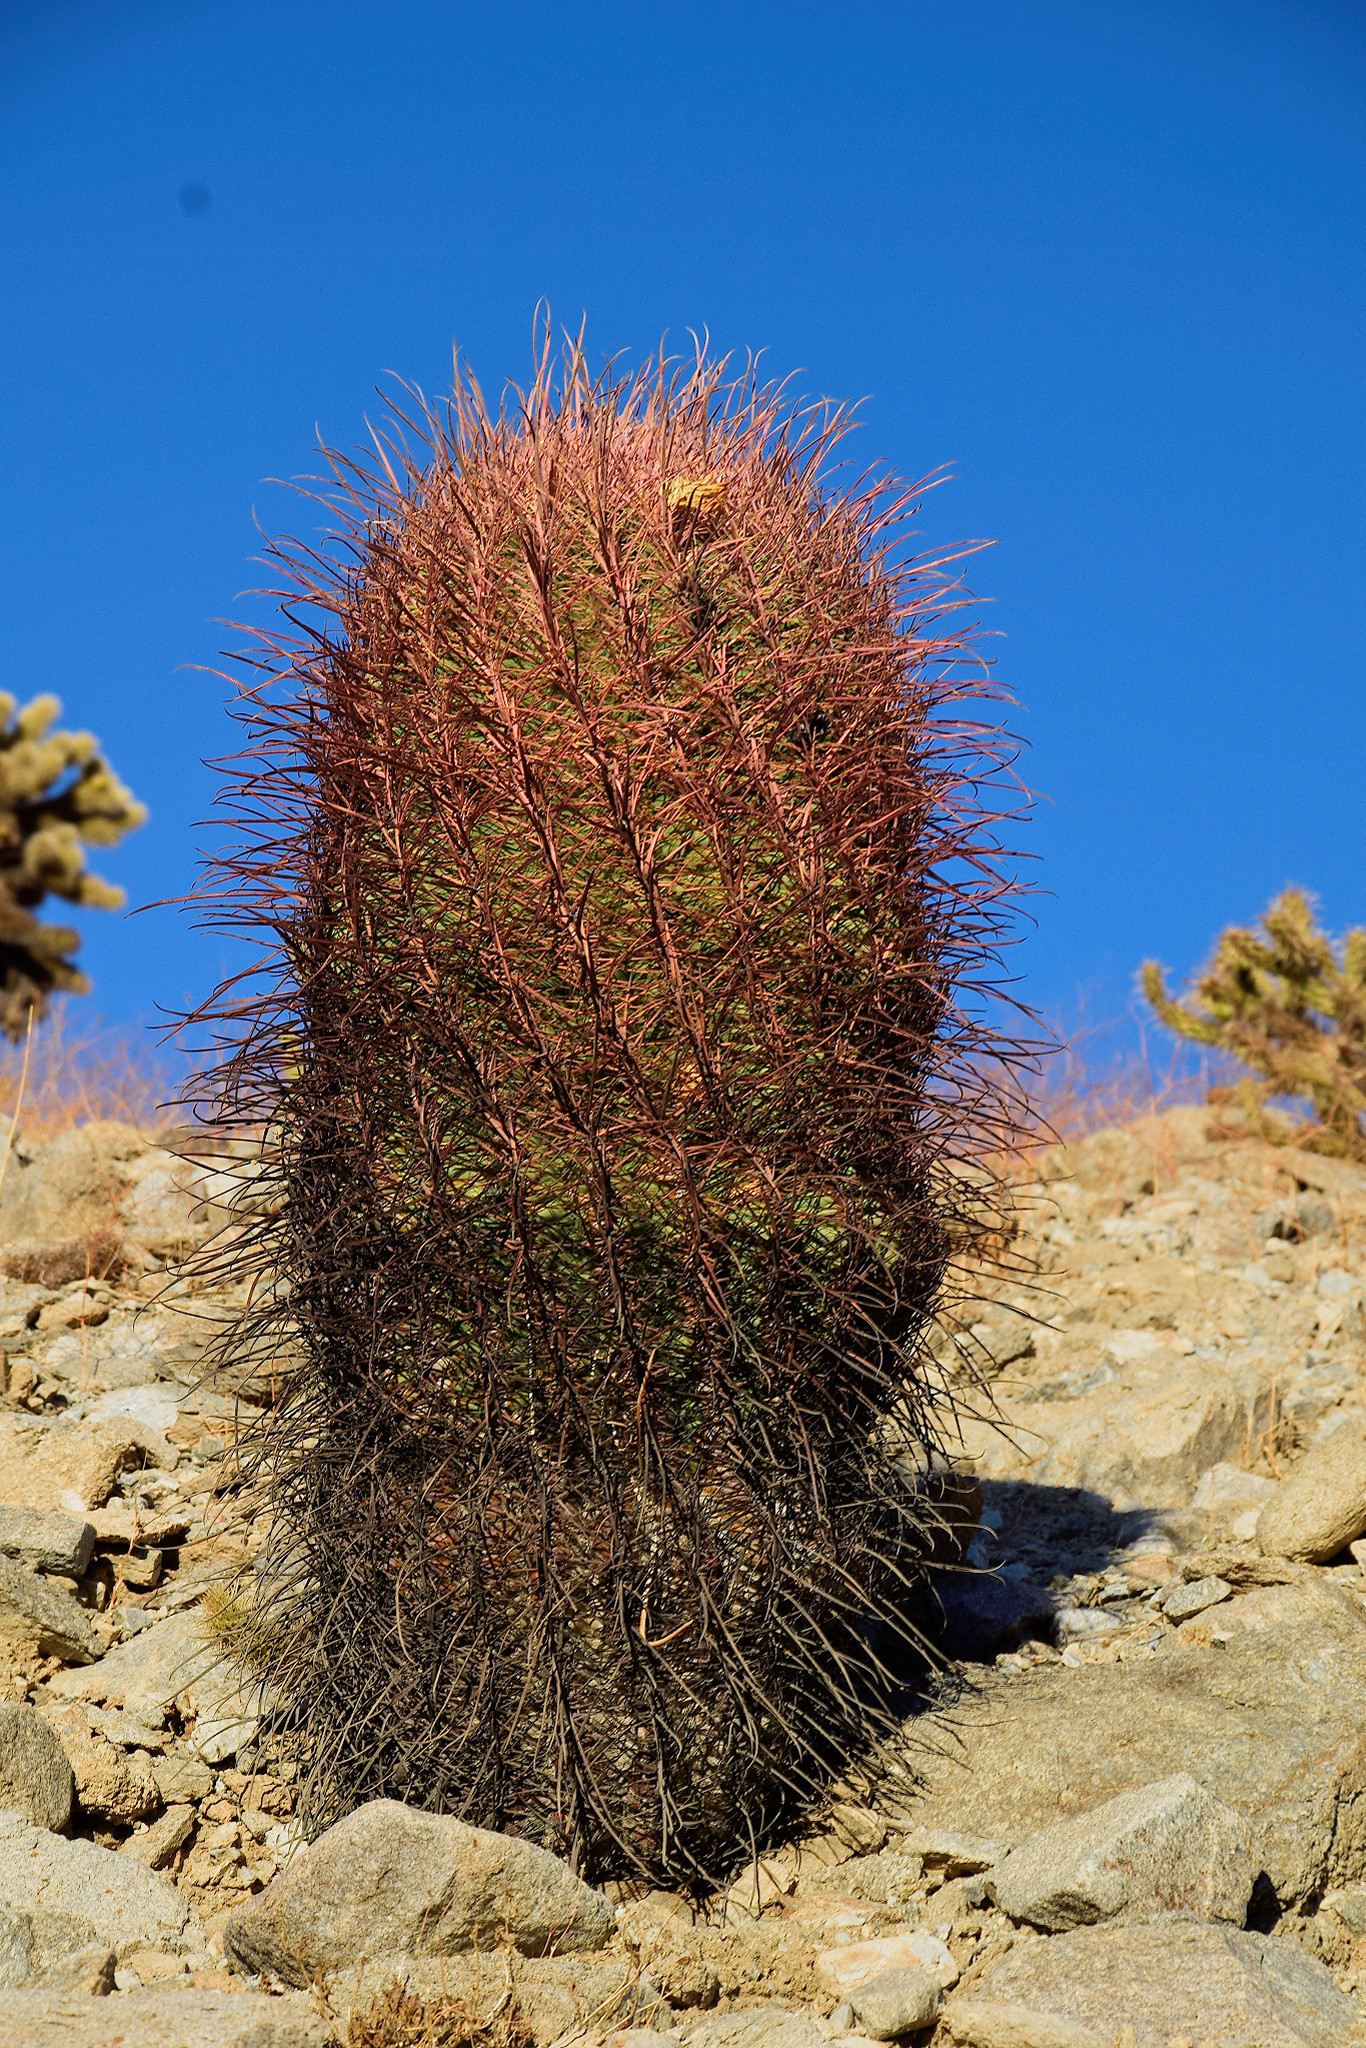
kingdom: Plantae
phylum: Tracheophyta
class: Magnoliopsida
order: Caryophyllales
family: Cactaceae
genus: Ferocactus
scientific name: Ferocactus cylindraceus
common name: California barrel cactus
